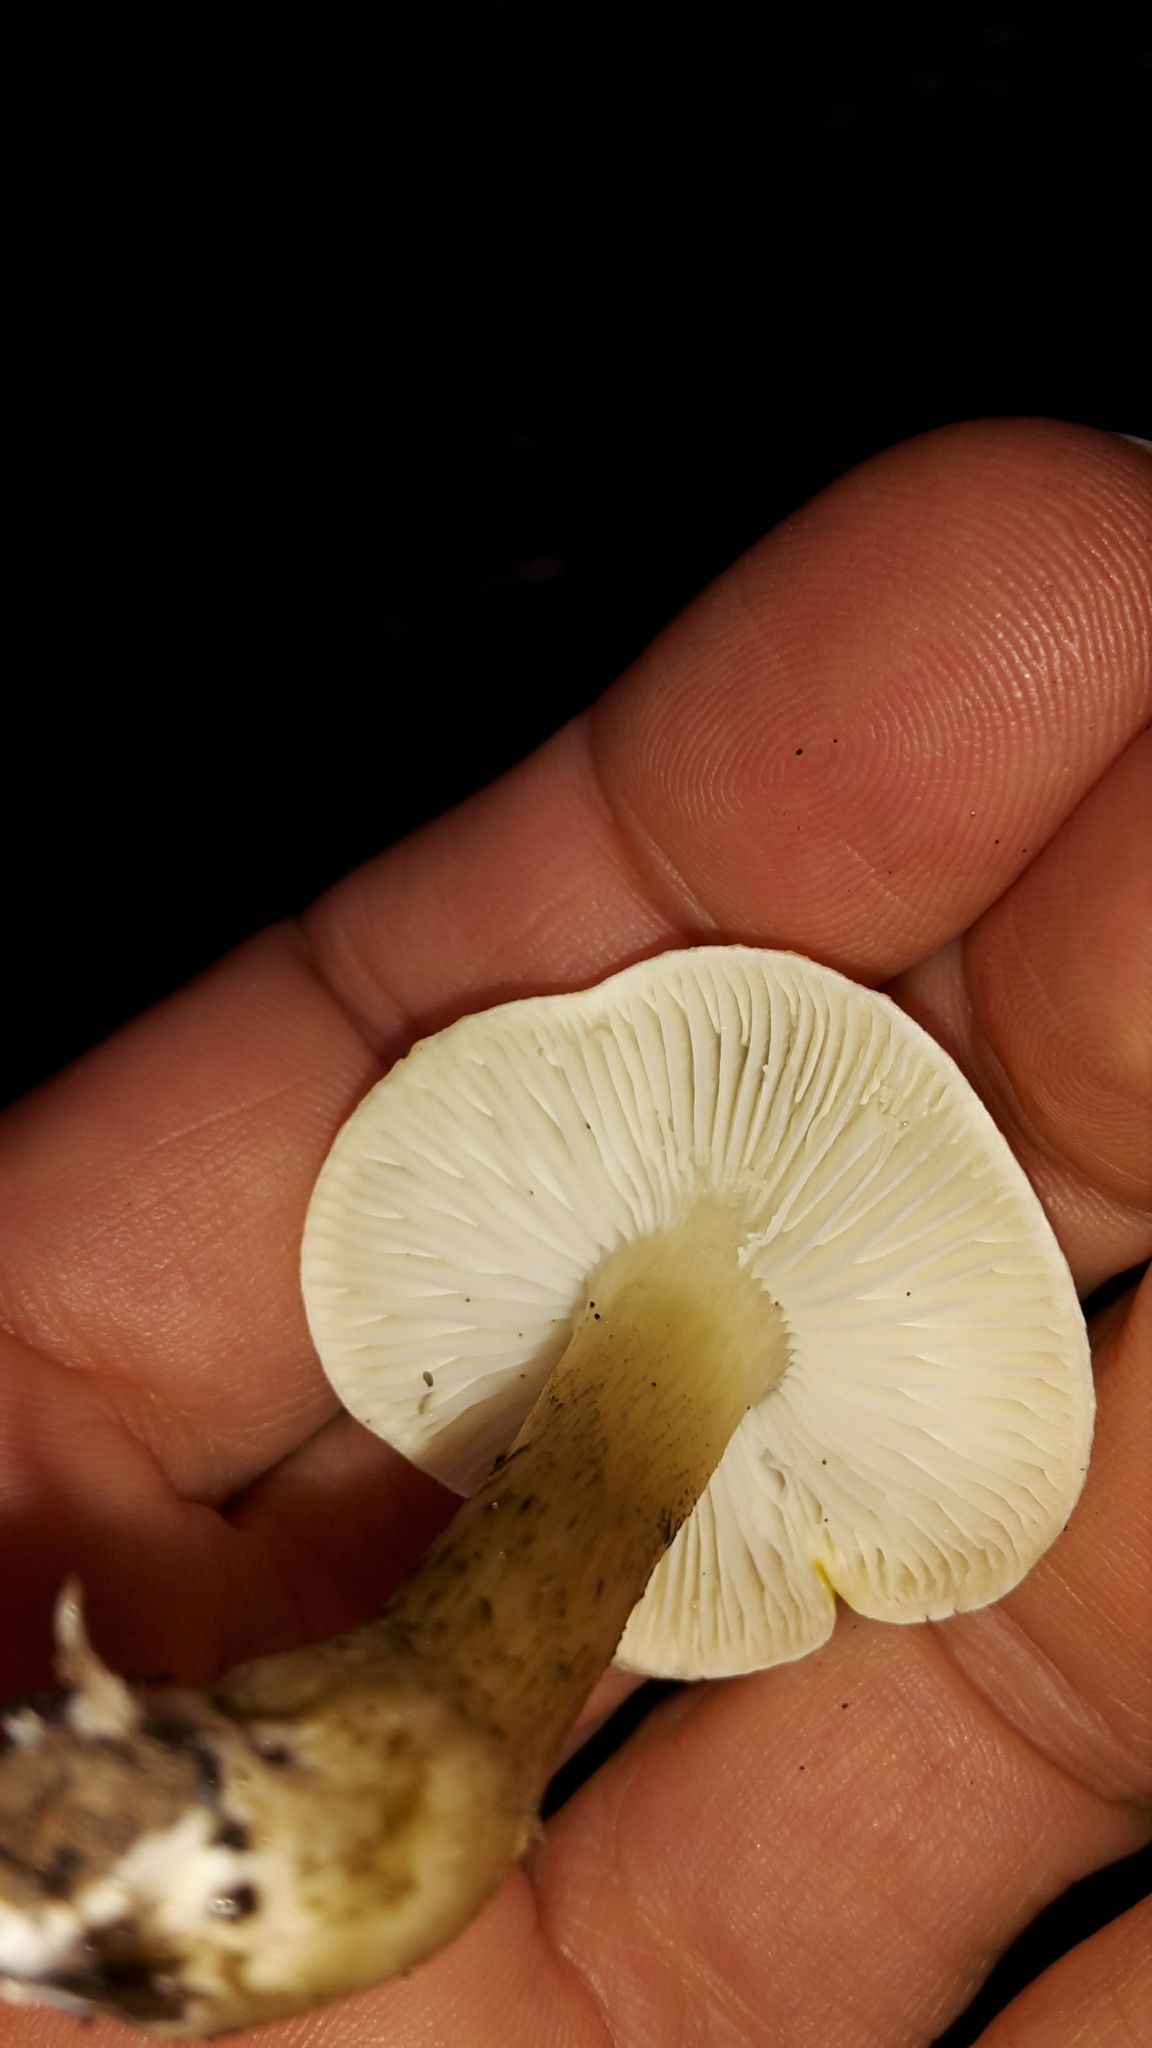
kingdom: Fungi
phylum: Basidiomycota
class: Agaricomycetes
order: Agaricales
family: Tricholomataceae
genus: Tricholoma
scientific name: Tricholoma viridiolivaceum
